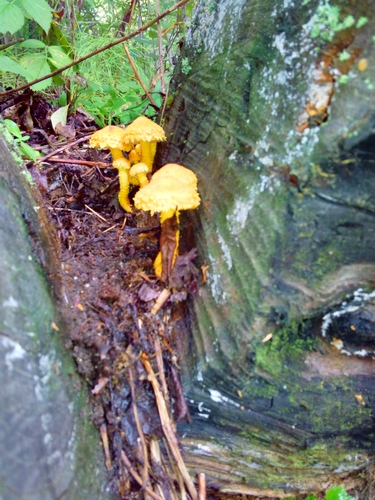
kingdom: Fungi
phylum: Basidiomycota
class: Agaricomycetes
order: Agaricales
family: Strophariaceae
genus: Pholiota
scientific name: Pholiota flammans
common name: Flaming scalycap
